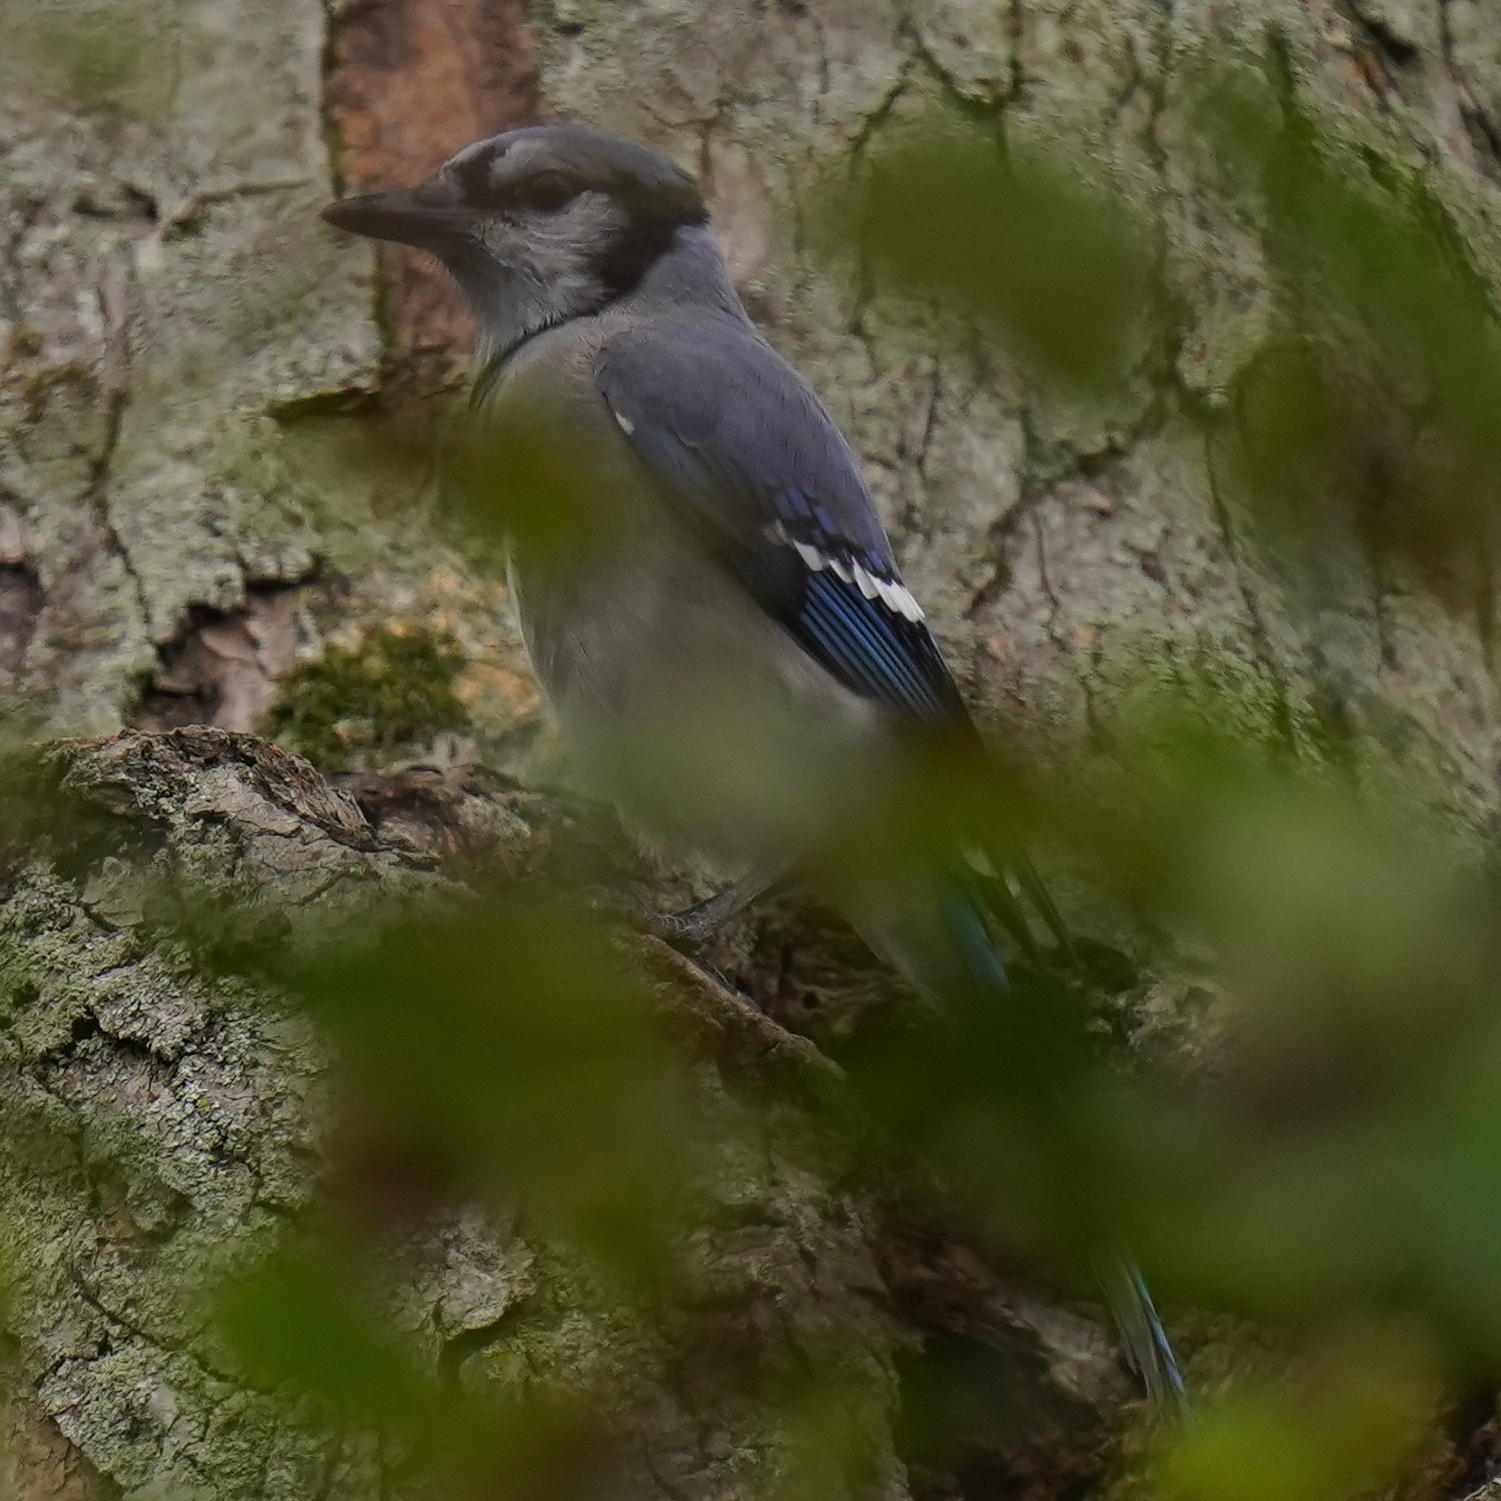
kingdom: Animalia
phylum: Chordata
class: Aves
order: Passeriformes
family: Corvidae
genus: Cyanocitta
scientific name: Cyanocitta cristata
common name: Blue jay
